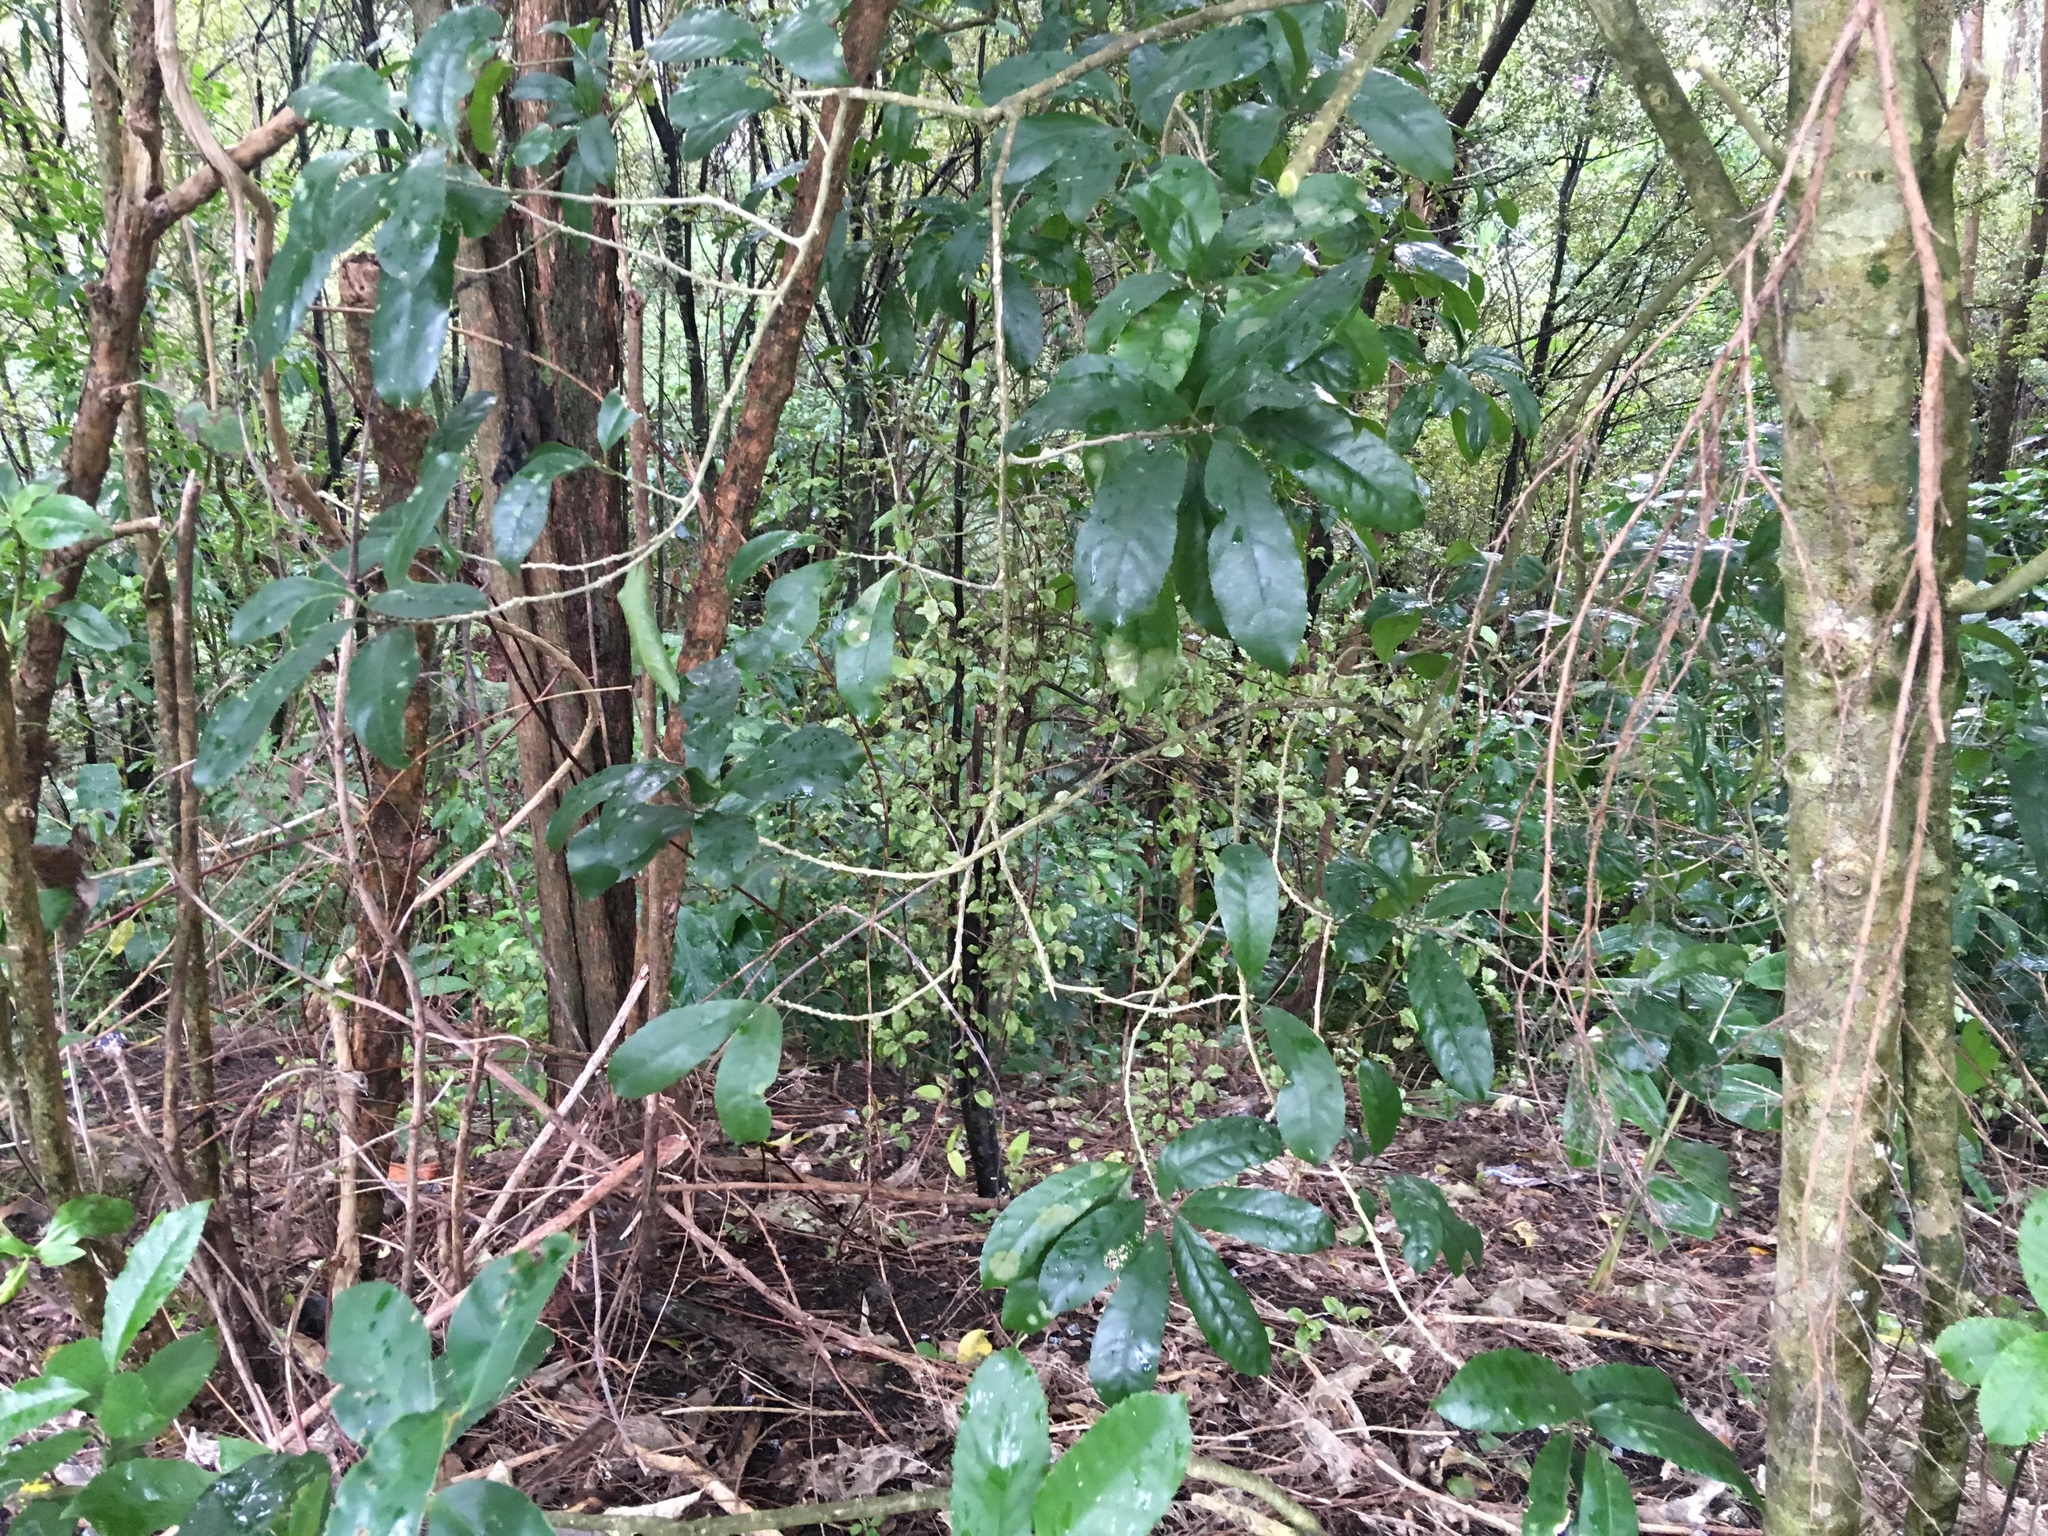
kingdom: Plantae
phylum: Tracheophyta
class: Magnoliopsida
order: Ericales
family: Primulaceae
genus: Myrsine
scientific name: Myrsine australis
